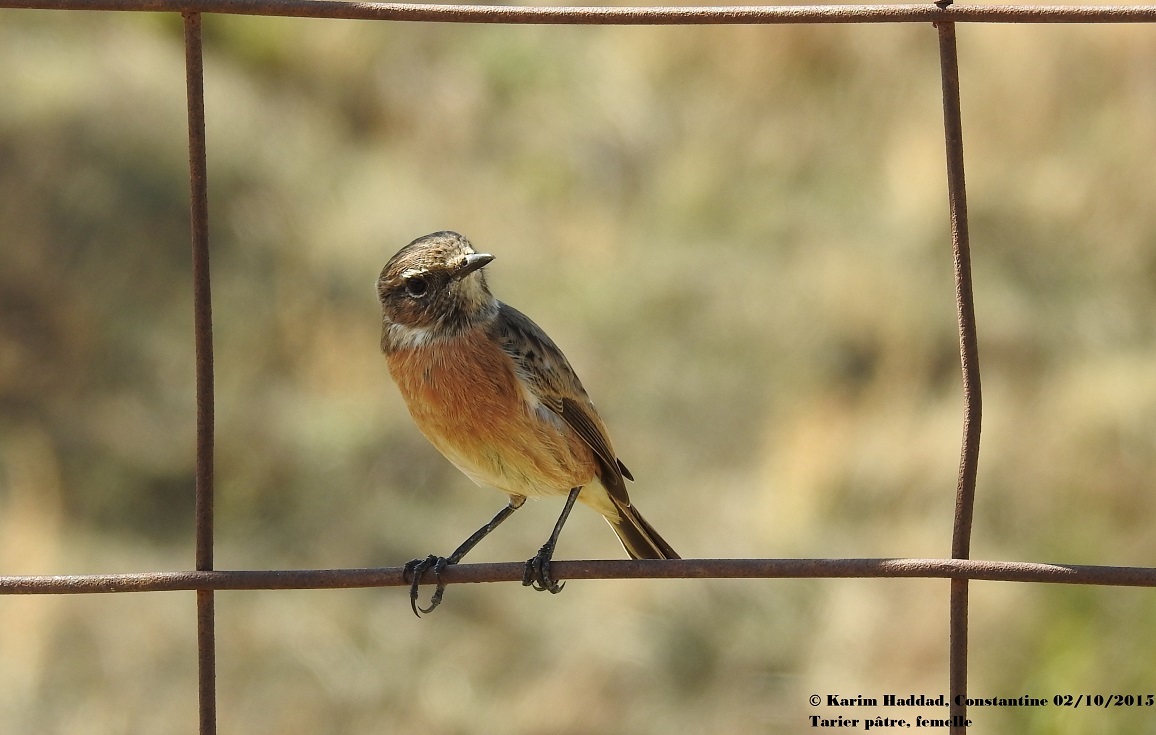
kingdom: Animalia
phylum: Chordata
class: Aves
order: Passeriformes
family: Muscicapidae
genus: Saxicola
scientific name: Saxicola rubicola
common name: European stonechat
